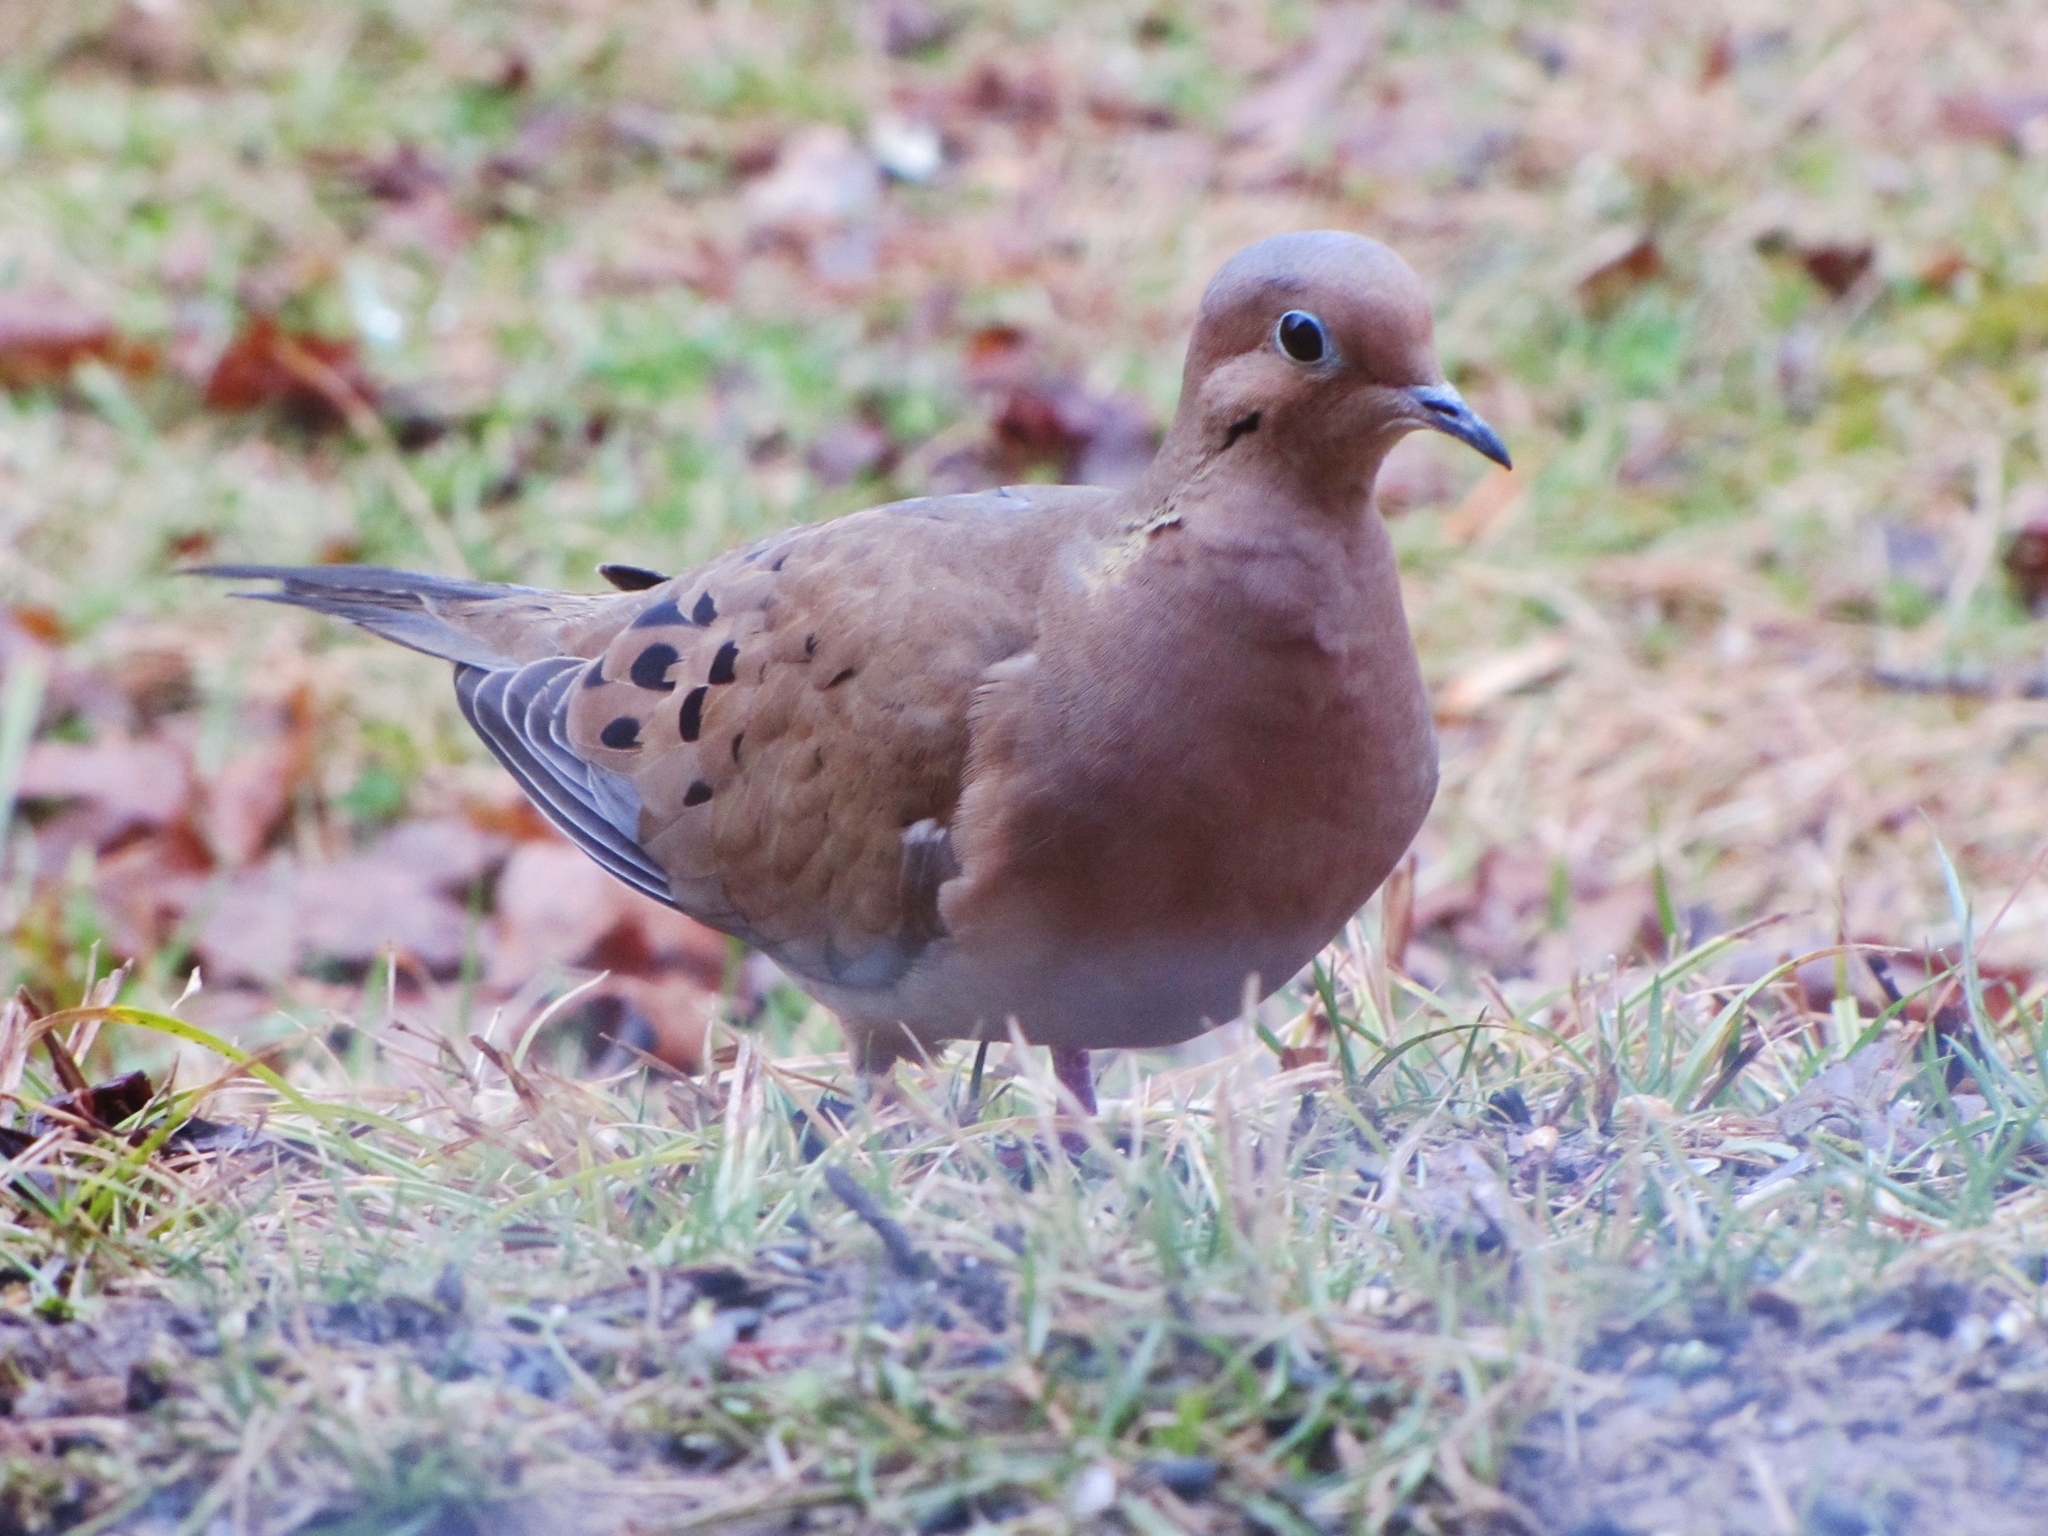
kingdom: Animalia
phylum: Chordata
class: Aves
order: Columbiformes
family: Columbidae
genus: Zenaida
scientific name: Zenaida macroura
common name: Mourning dove
